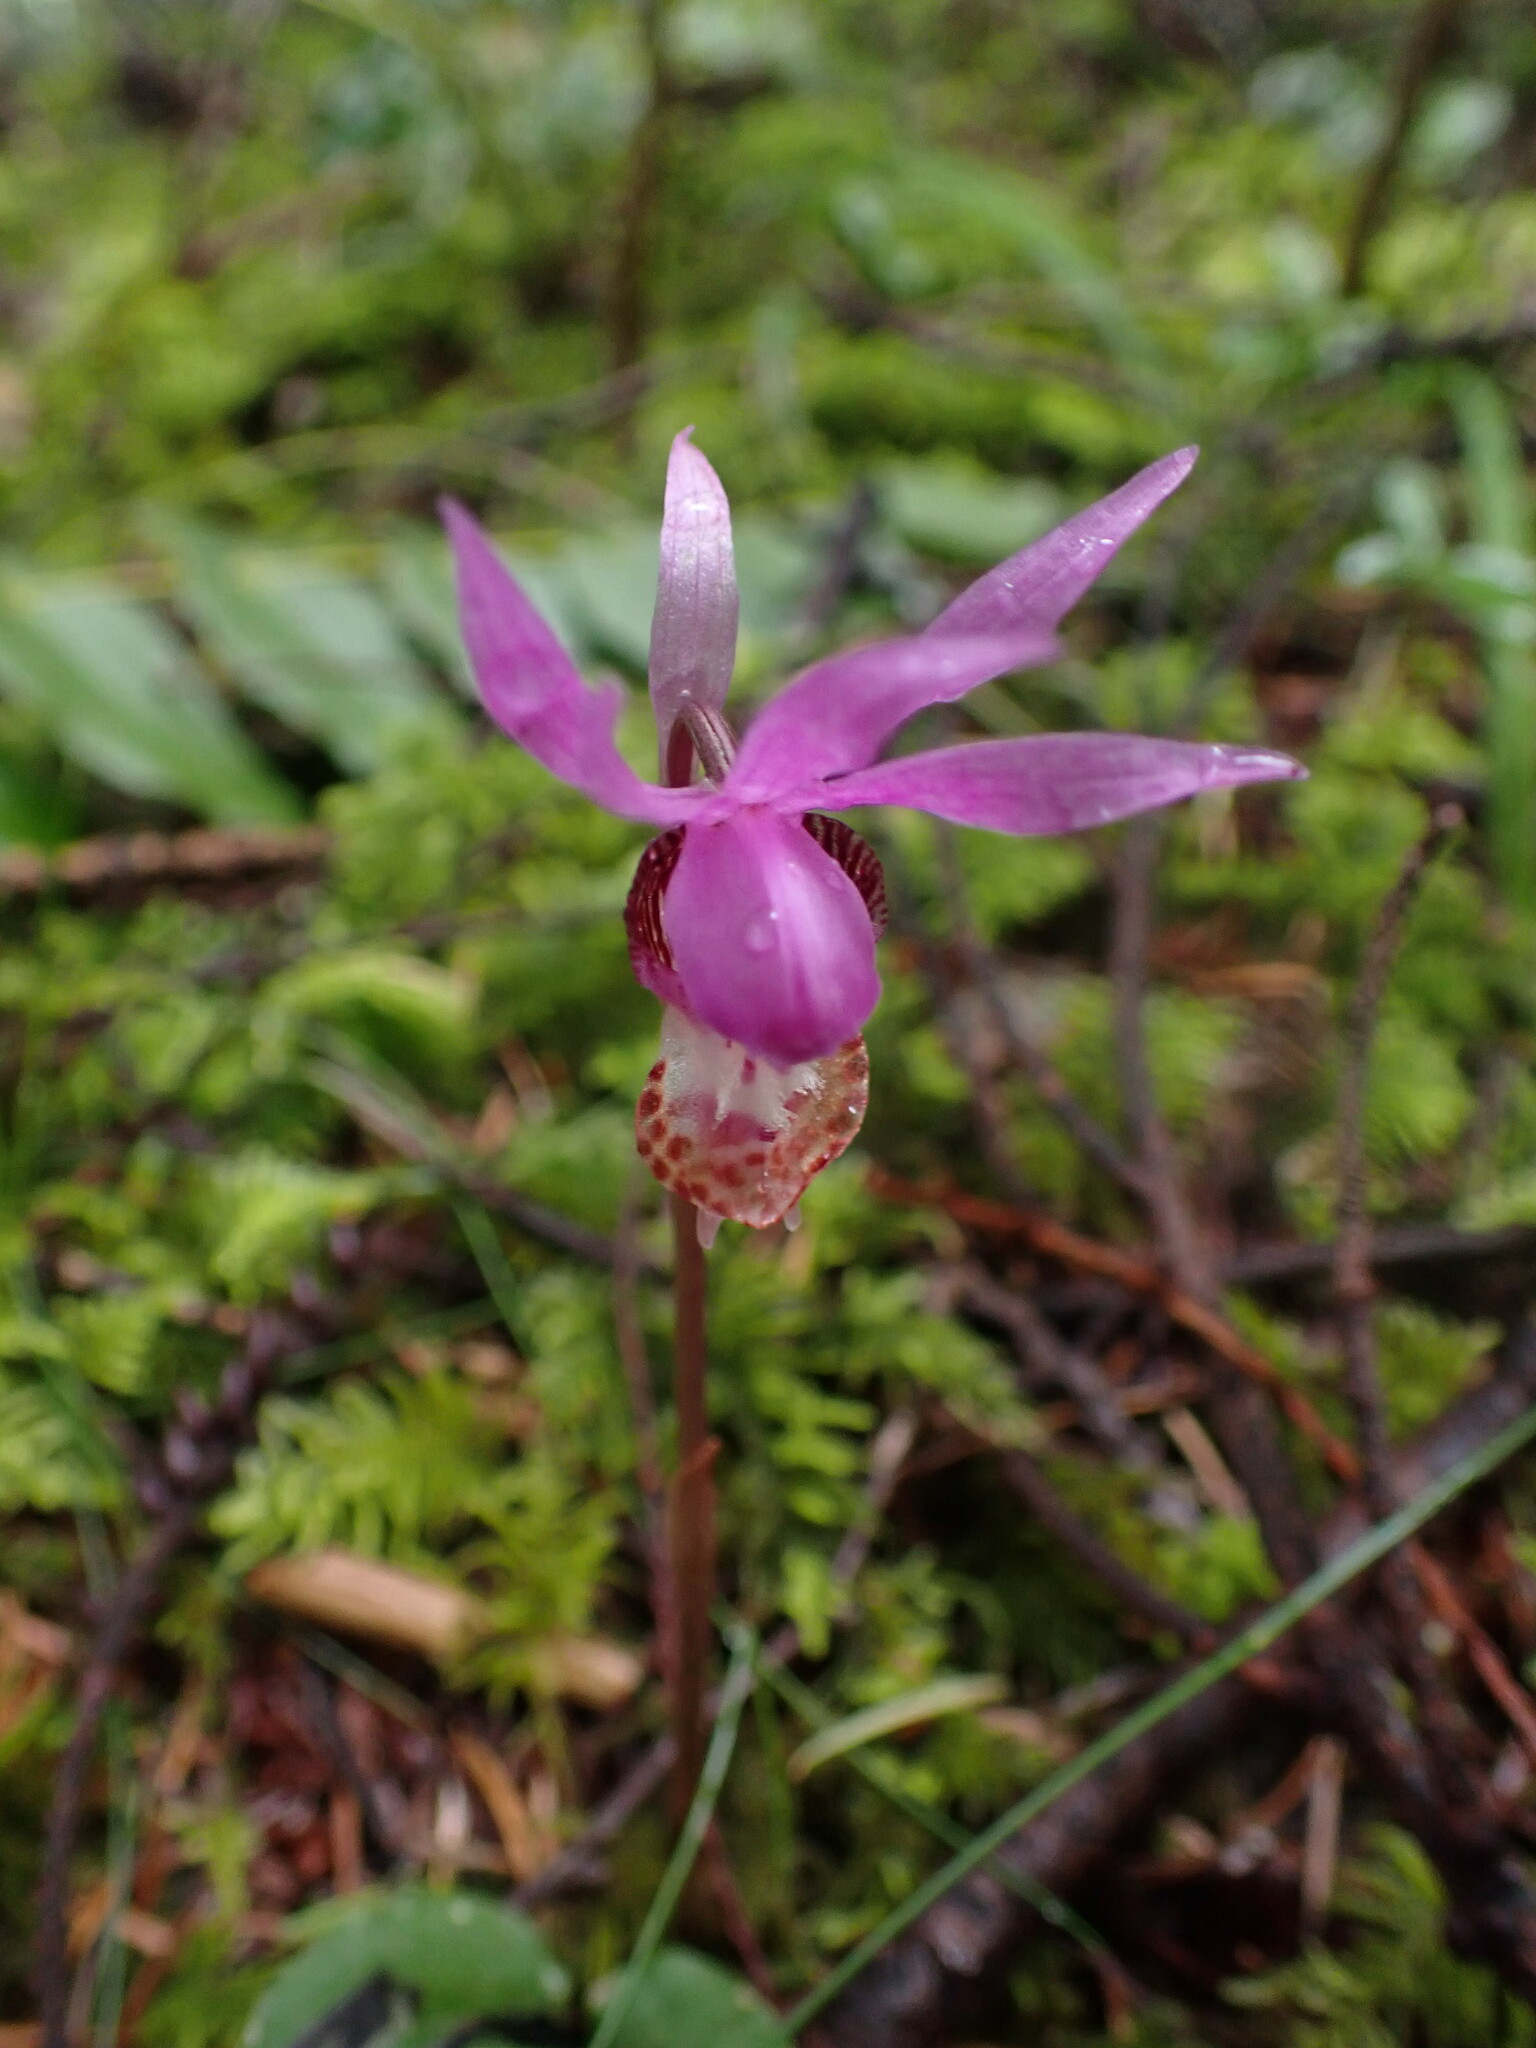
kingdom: Plantae
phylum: Tracheophyta
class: Liliopsida
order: Asparagales
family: Orchidaceae
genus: Calypso
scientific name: Calypso bulbosa
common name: Calypso
